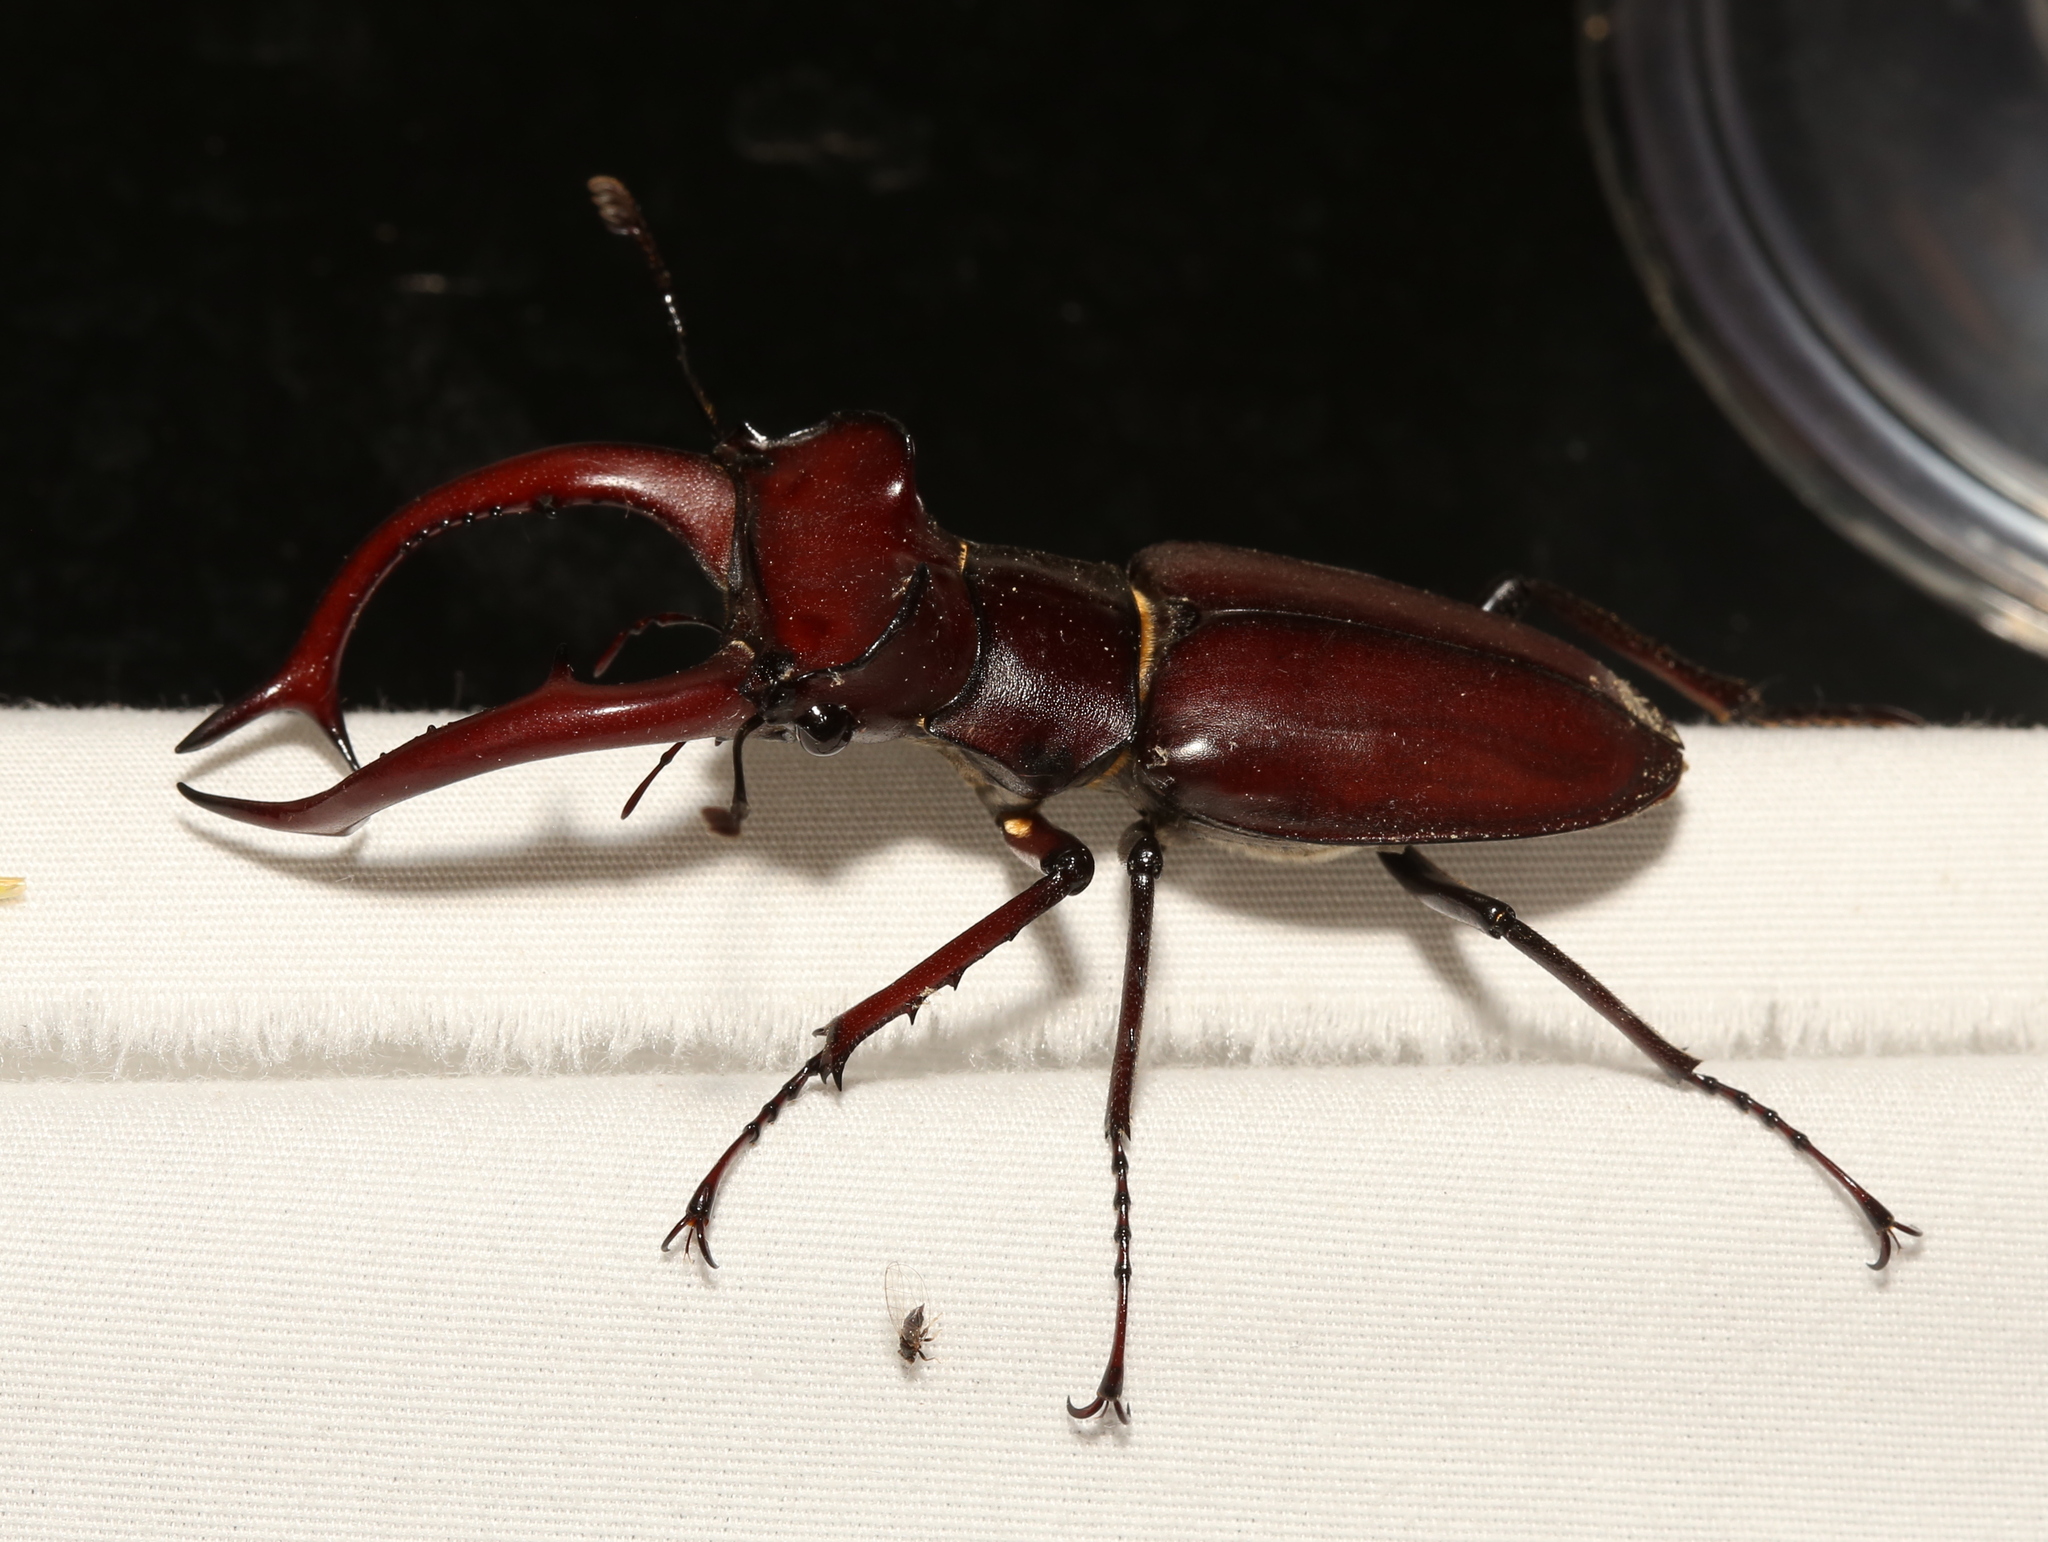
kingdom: Animalia
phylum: Arthropoda
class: Insecta
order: Coleoptera
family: Lucanidae
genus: Lucanus
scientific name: Lucanus elaphus
